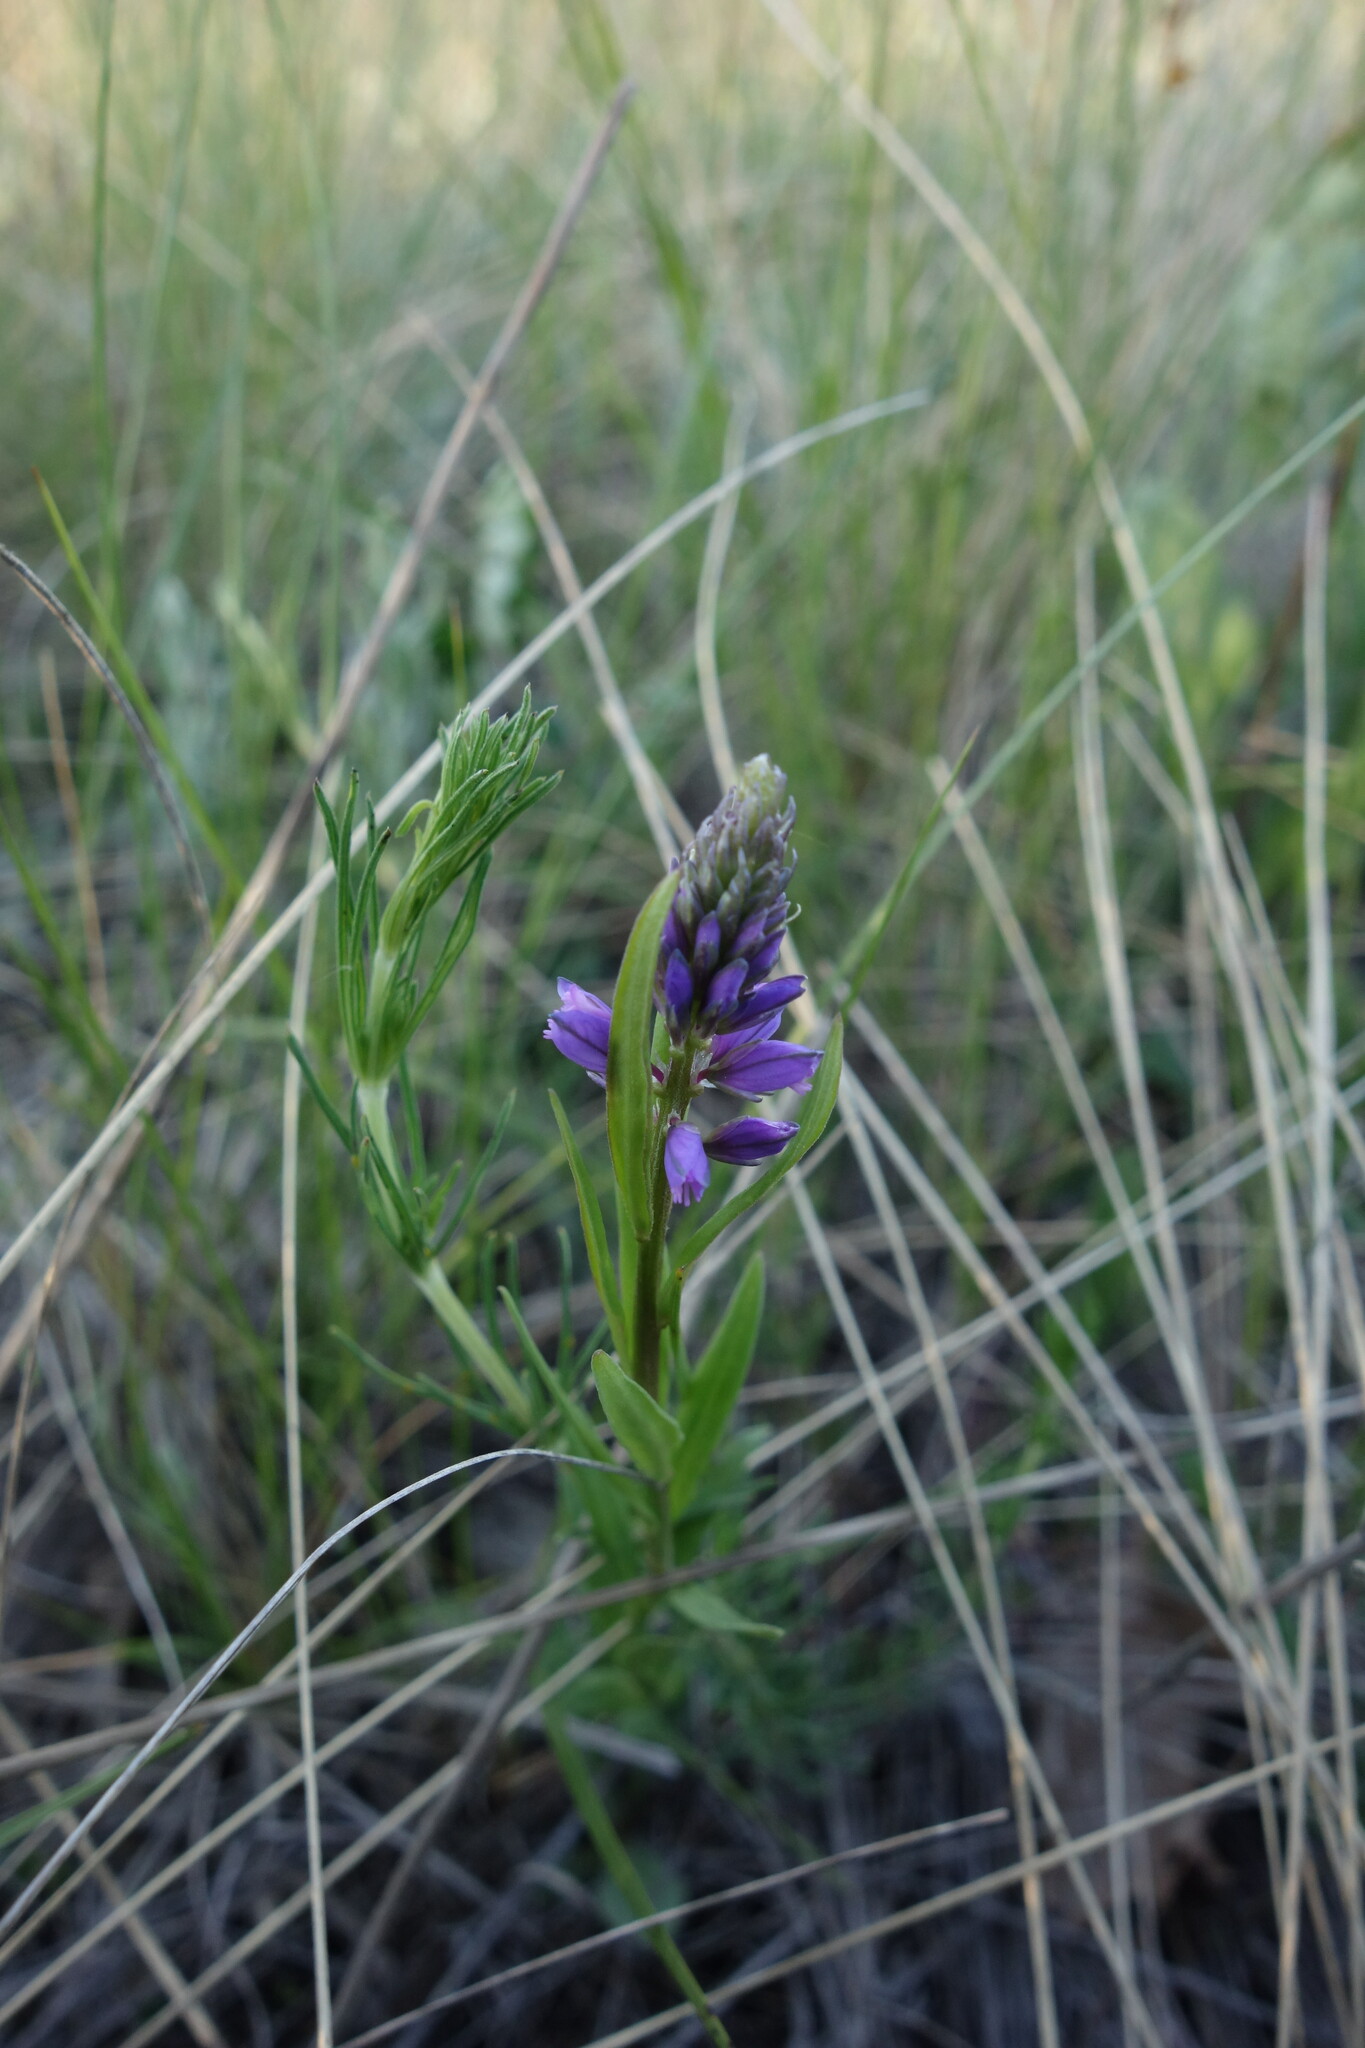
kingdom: Plantae
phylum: Tracheophyta
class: Magnoliopsida
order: Fabales
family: Polygalaceae
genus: Polygala
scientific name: Polygala comosa
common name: Tufted milkwort
